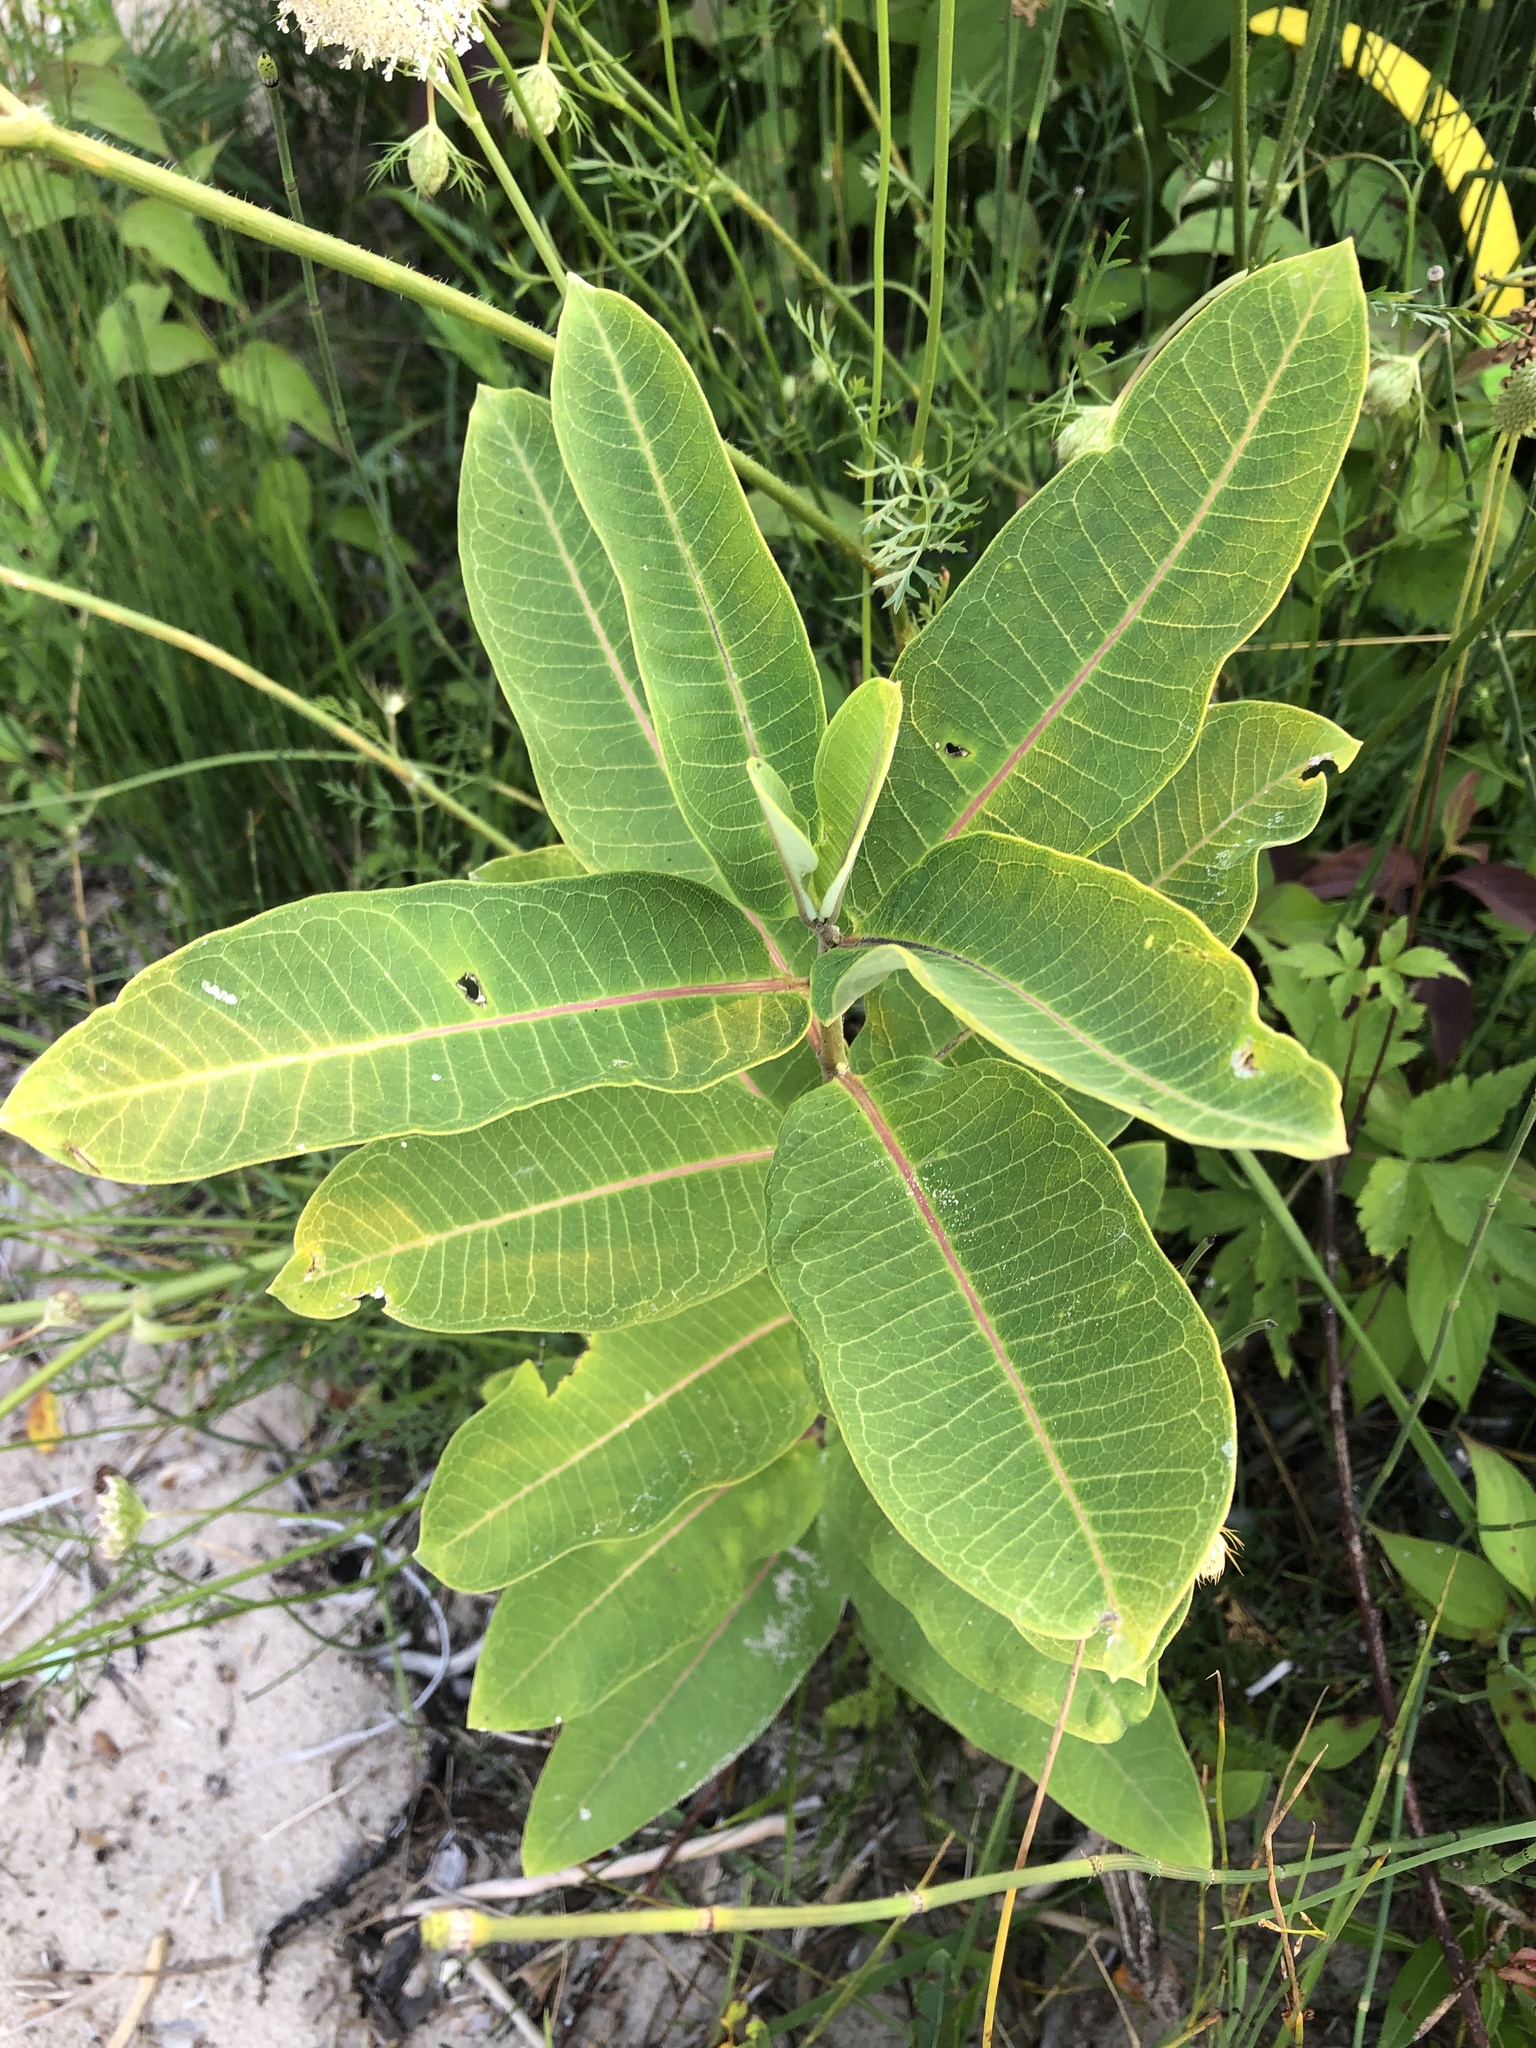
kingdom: Plantae
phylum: Tracheophyta
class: Magnoliopsida
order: Gentianales
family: Apocynaceae
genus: Asclepias
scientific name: Asclepias syriaca
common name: Common milkweed
